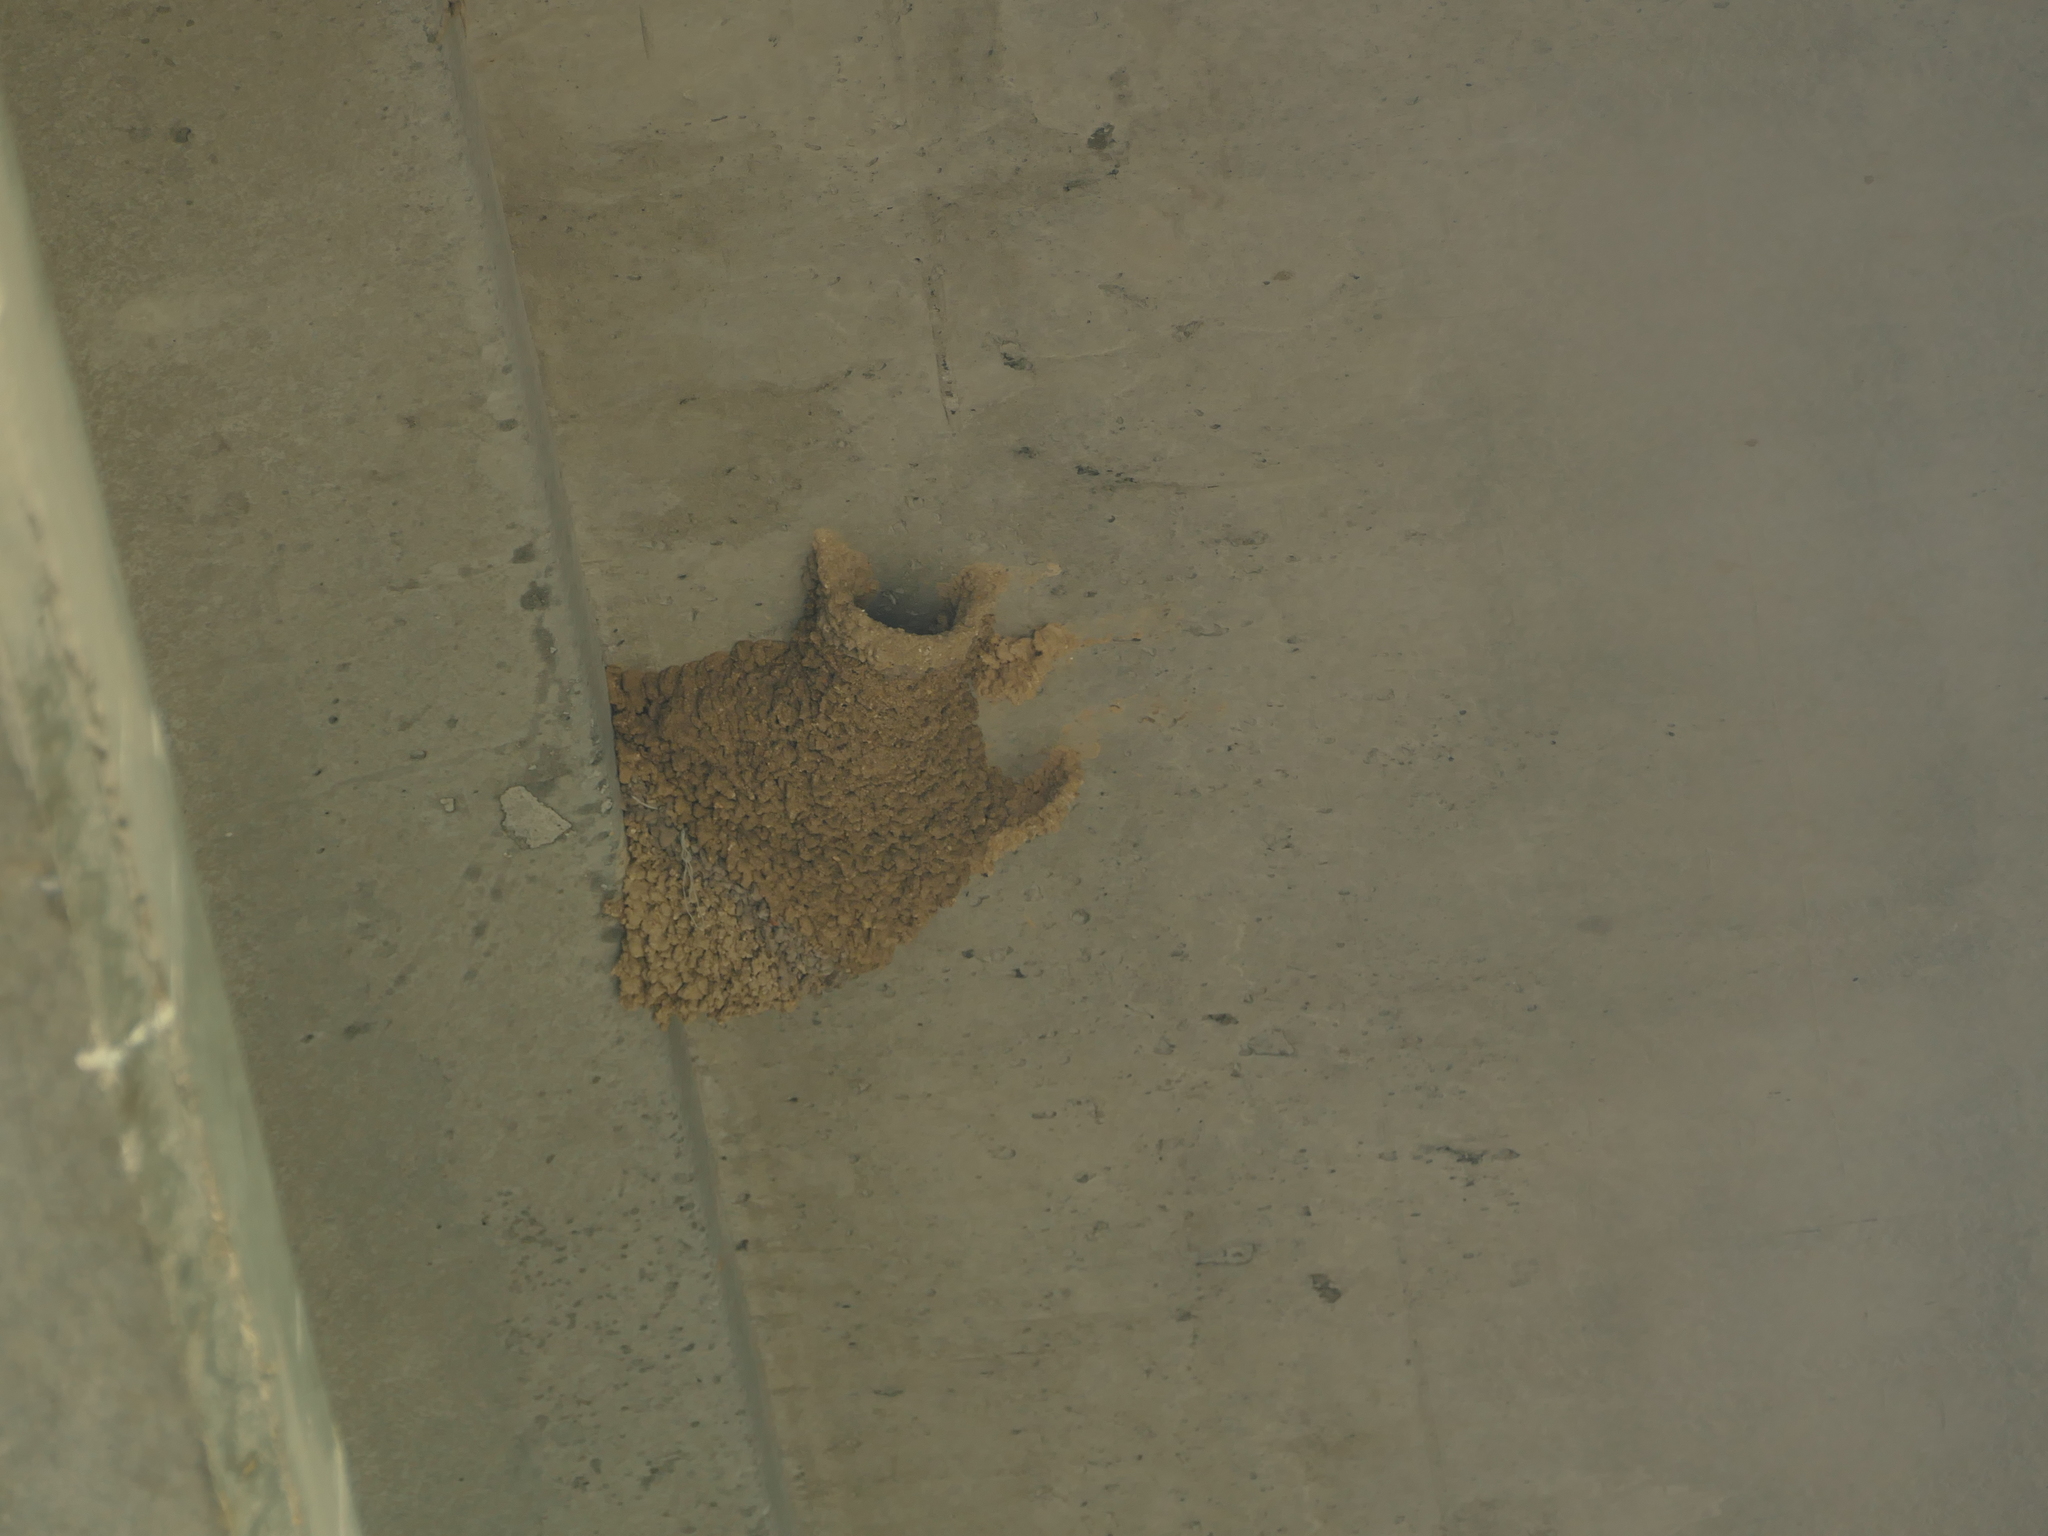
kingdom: Animalia
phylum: Chordata
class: Aves
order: Passeriformes
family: Hirundinidae
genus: Cecropis
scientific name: Cecropis daurica
